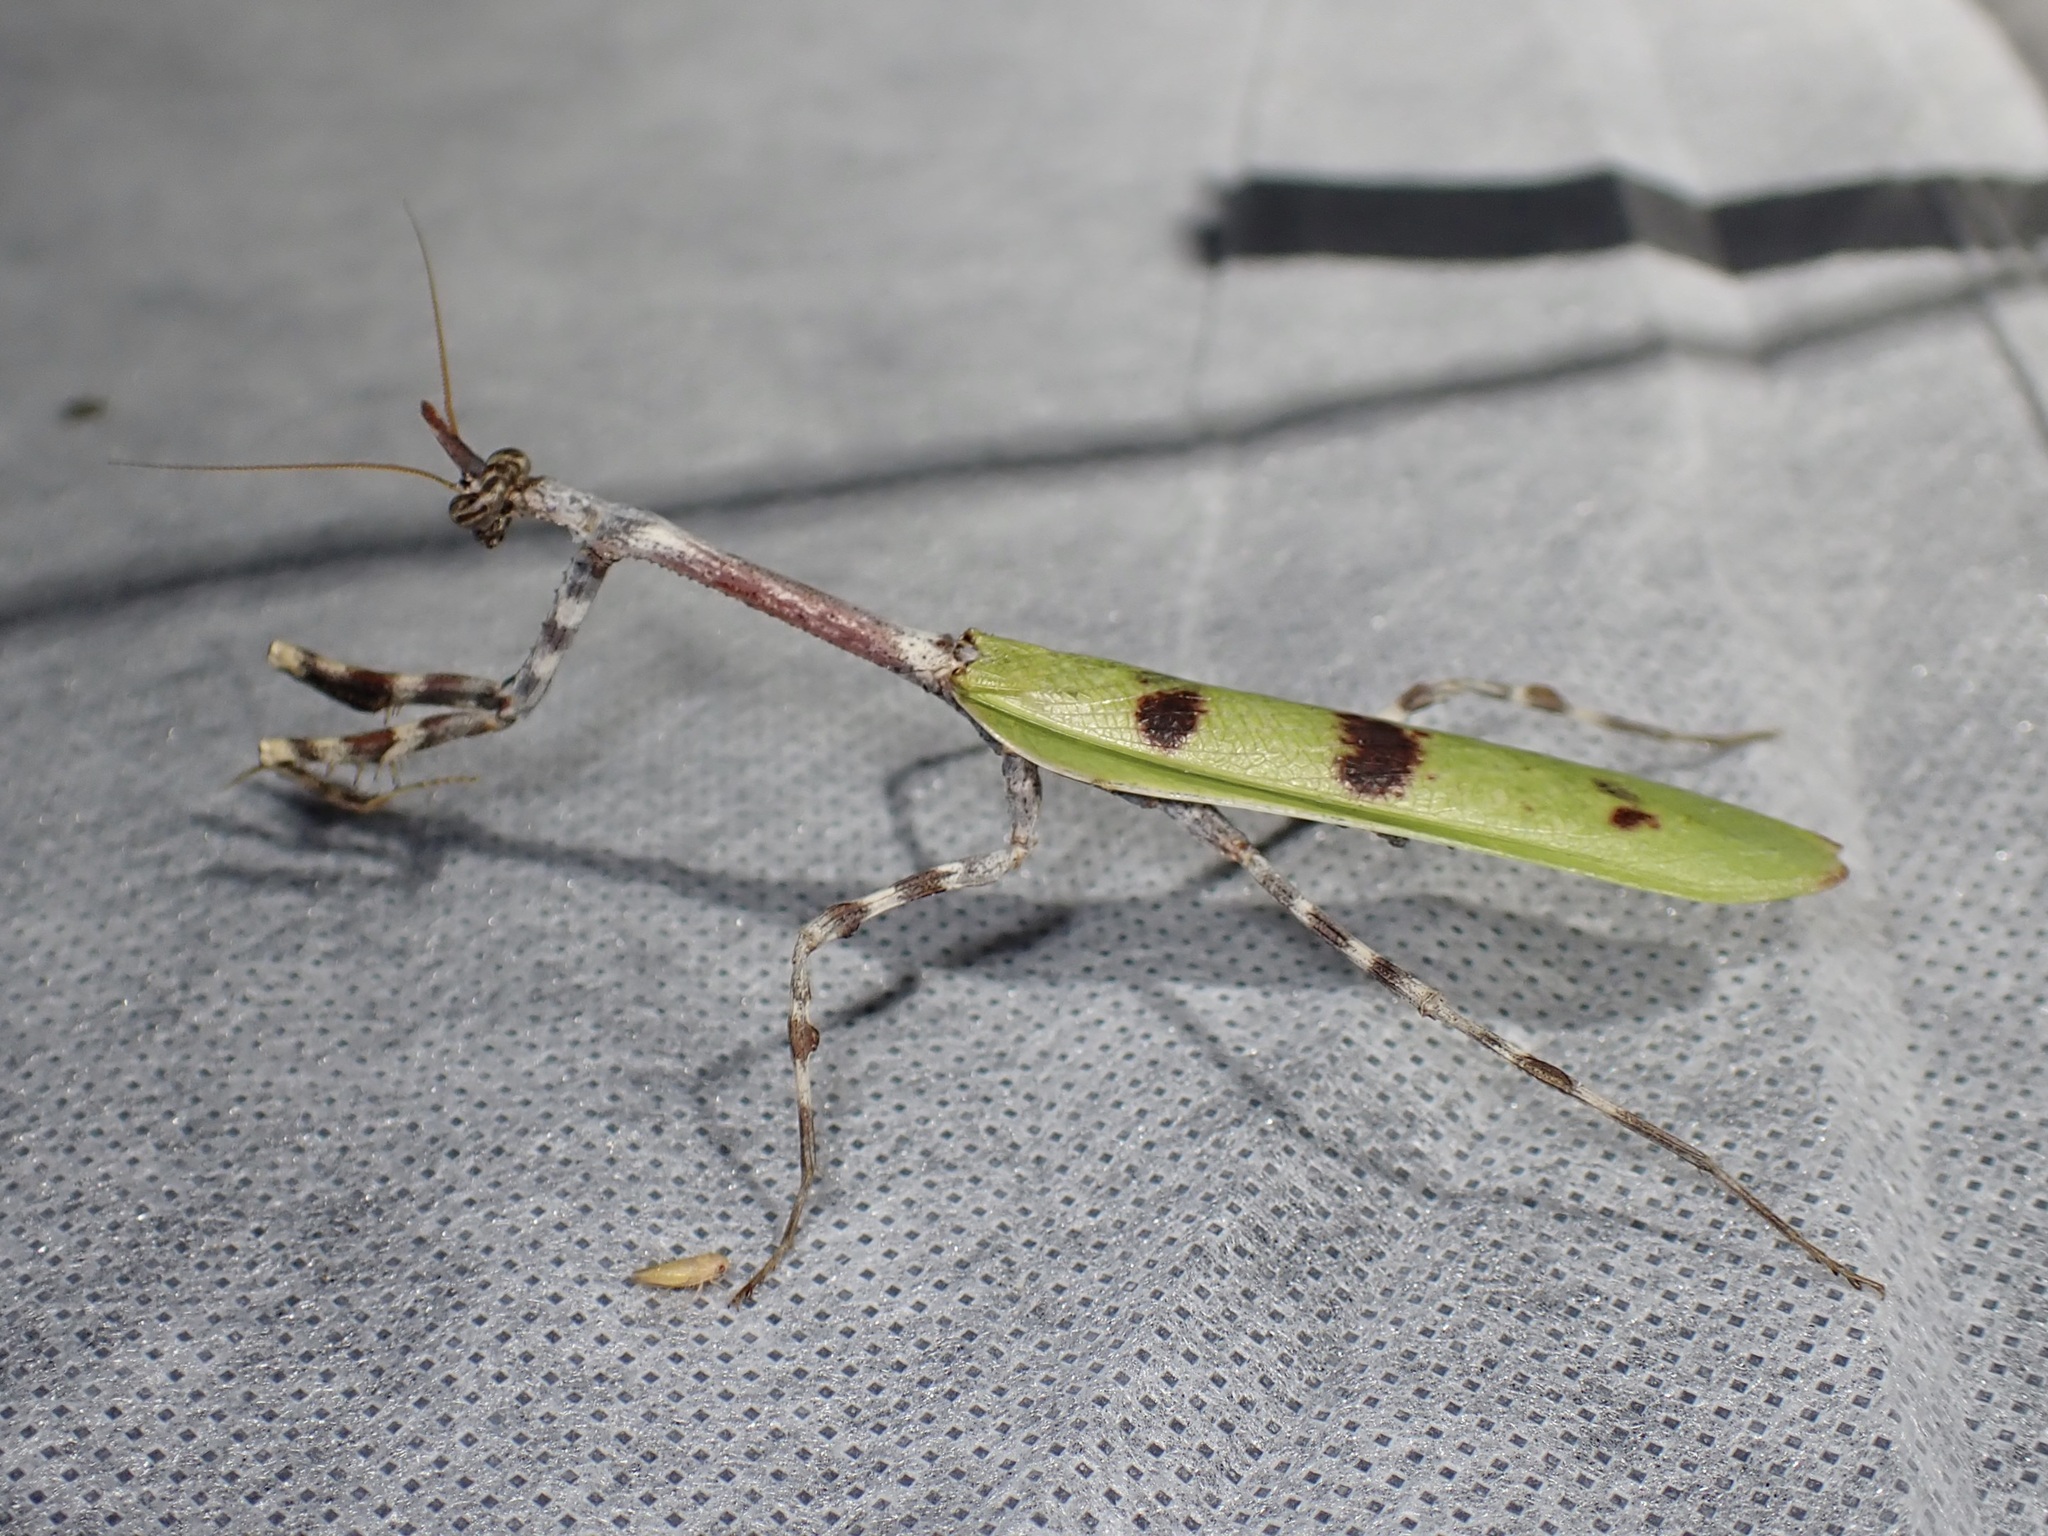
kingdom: Animalia
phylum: Arthropoda
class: Insecta
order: Mantodea
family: Mantidae
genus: Pseudovates
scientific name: Pseudovates arizonae
